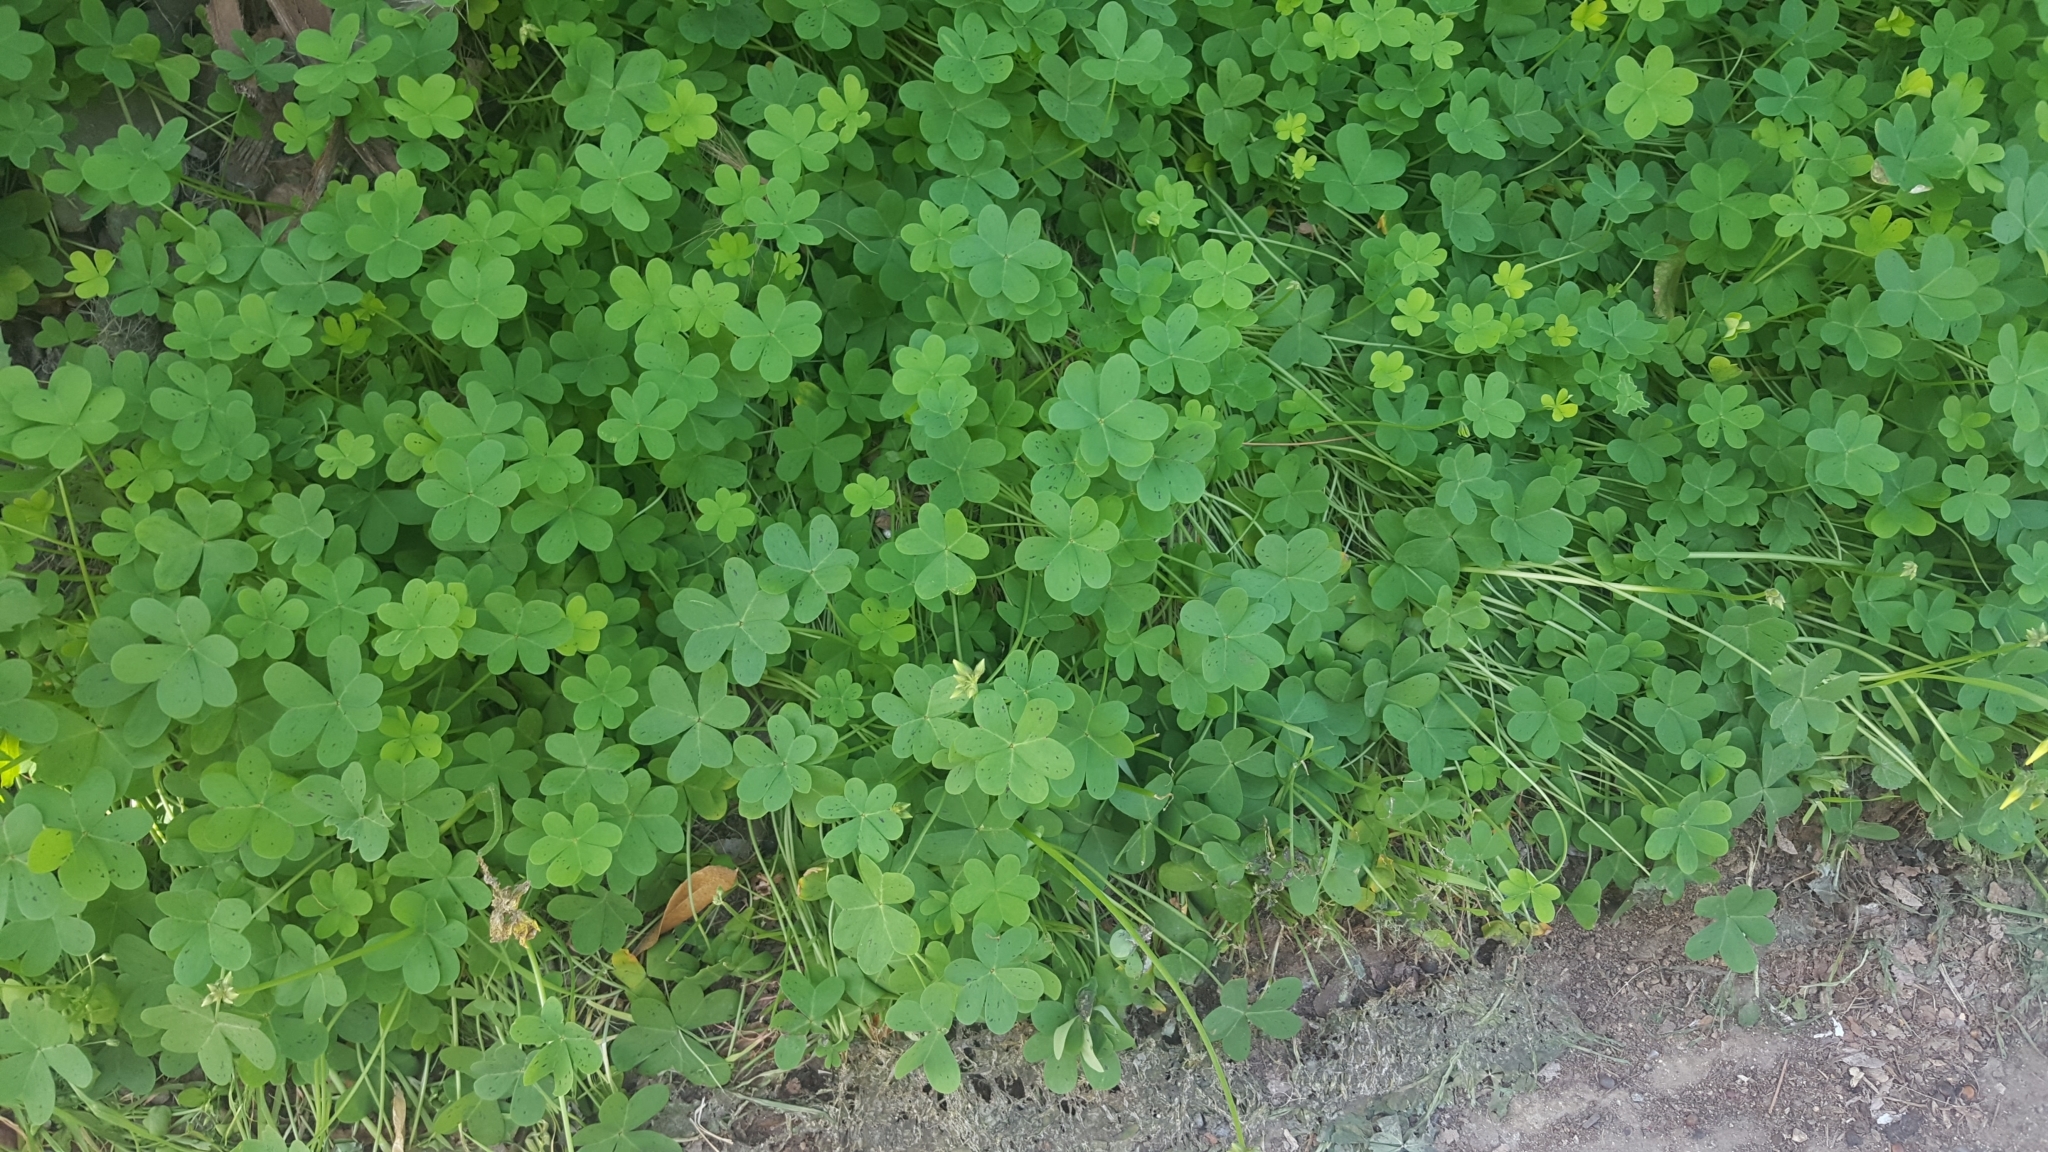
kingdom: Plantae
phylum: Tracheophyta
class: Magnoliopsida
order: Oxalidales
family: Oxalidaceae
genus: Oxalis
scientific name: Oxalis pes-caprae
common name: Bermuda-buttercup
